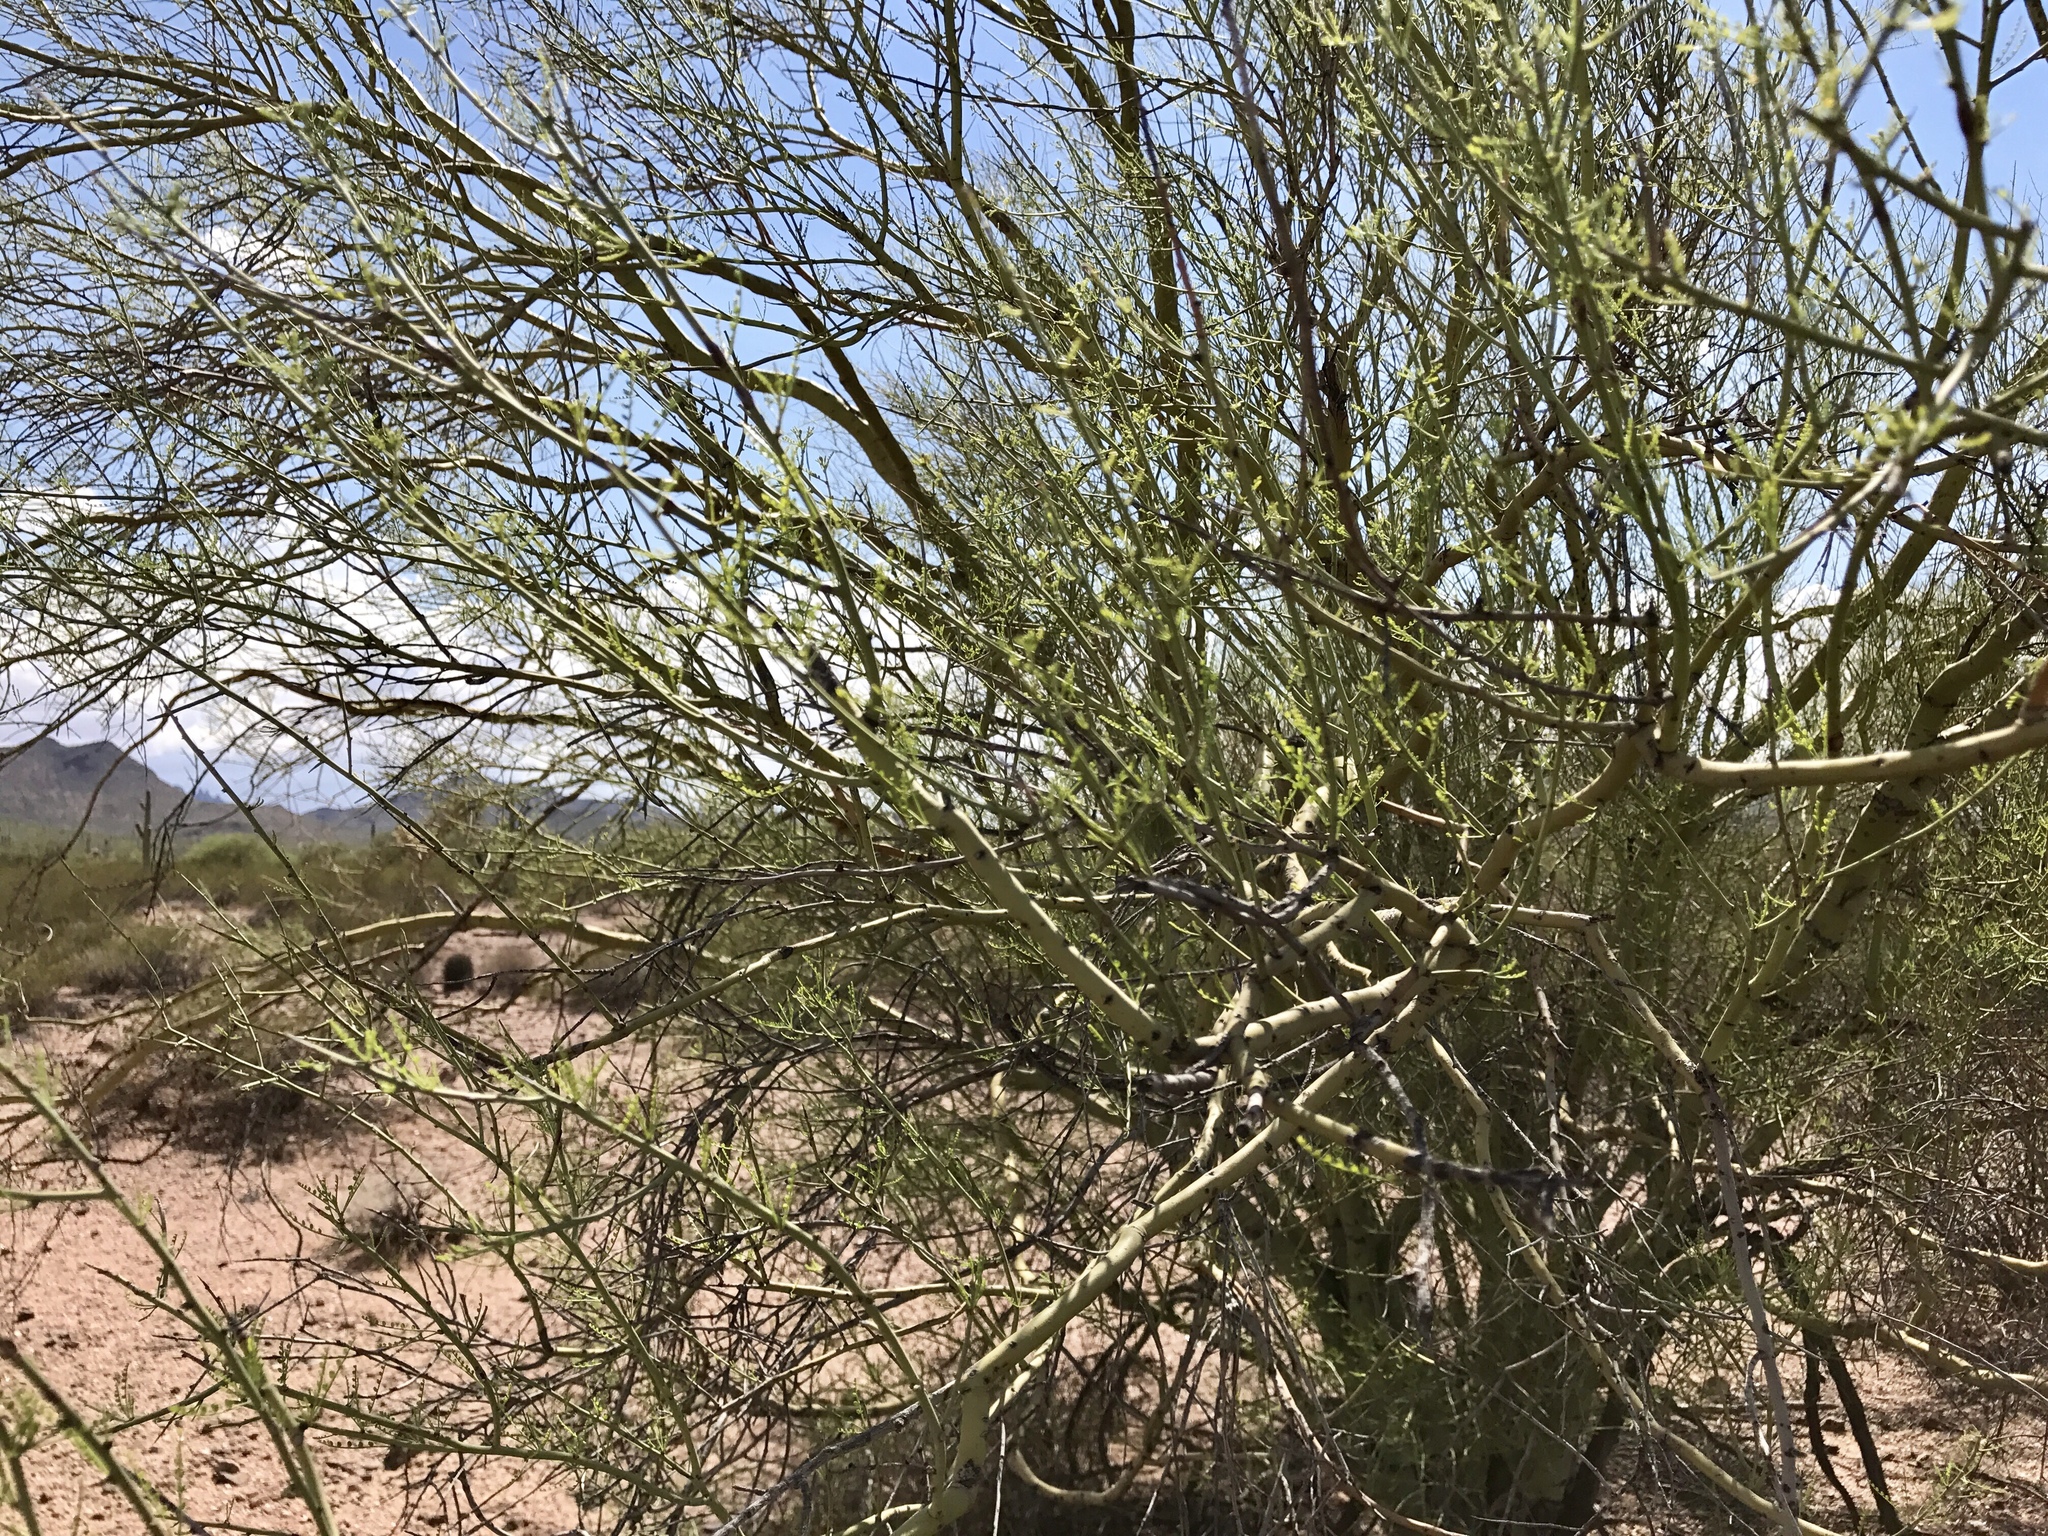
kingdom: Plantae
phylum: Tracheophyta
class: Magnoliopsida
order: Fabales
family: Fabaceae
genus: Parkinsonia
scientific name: Parkinsonia florida
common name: Blue paloverde
